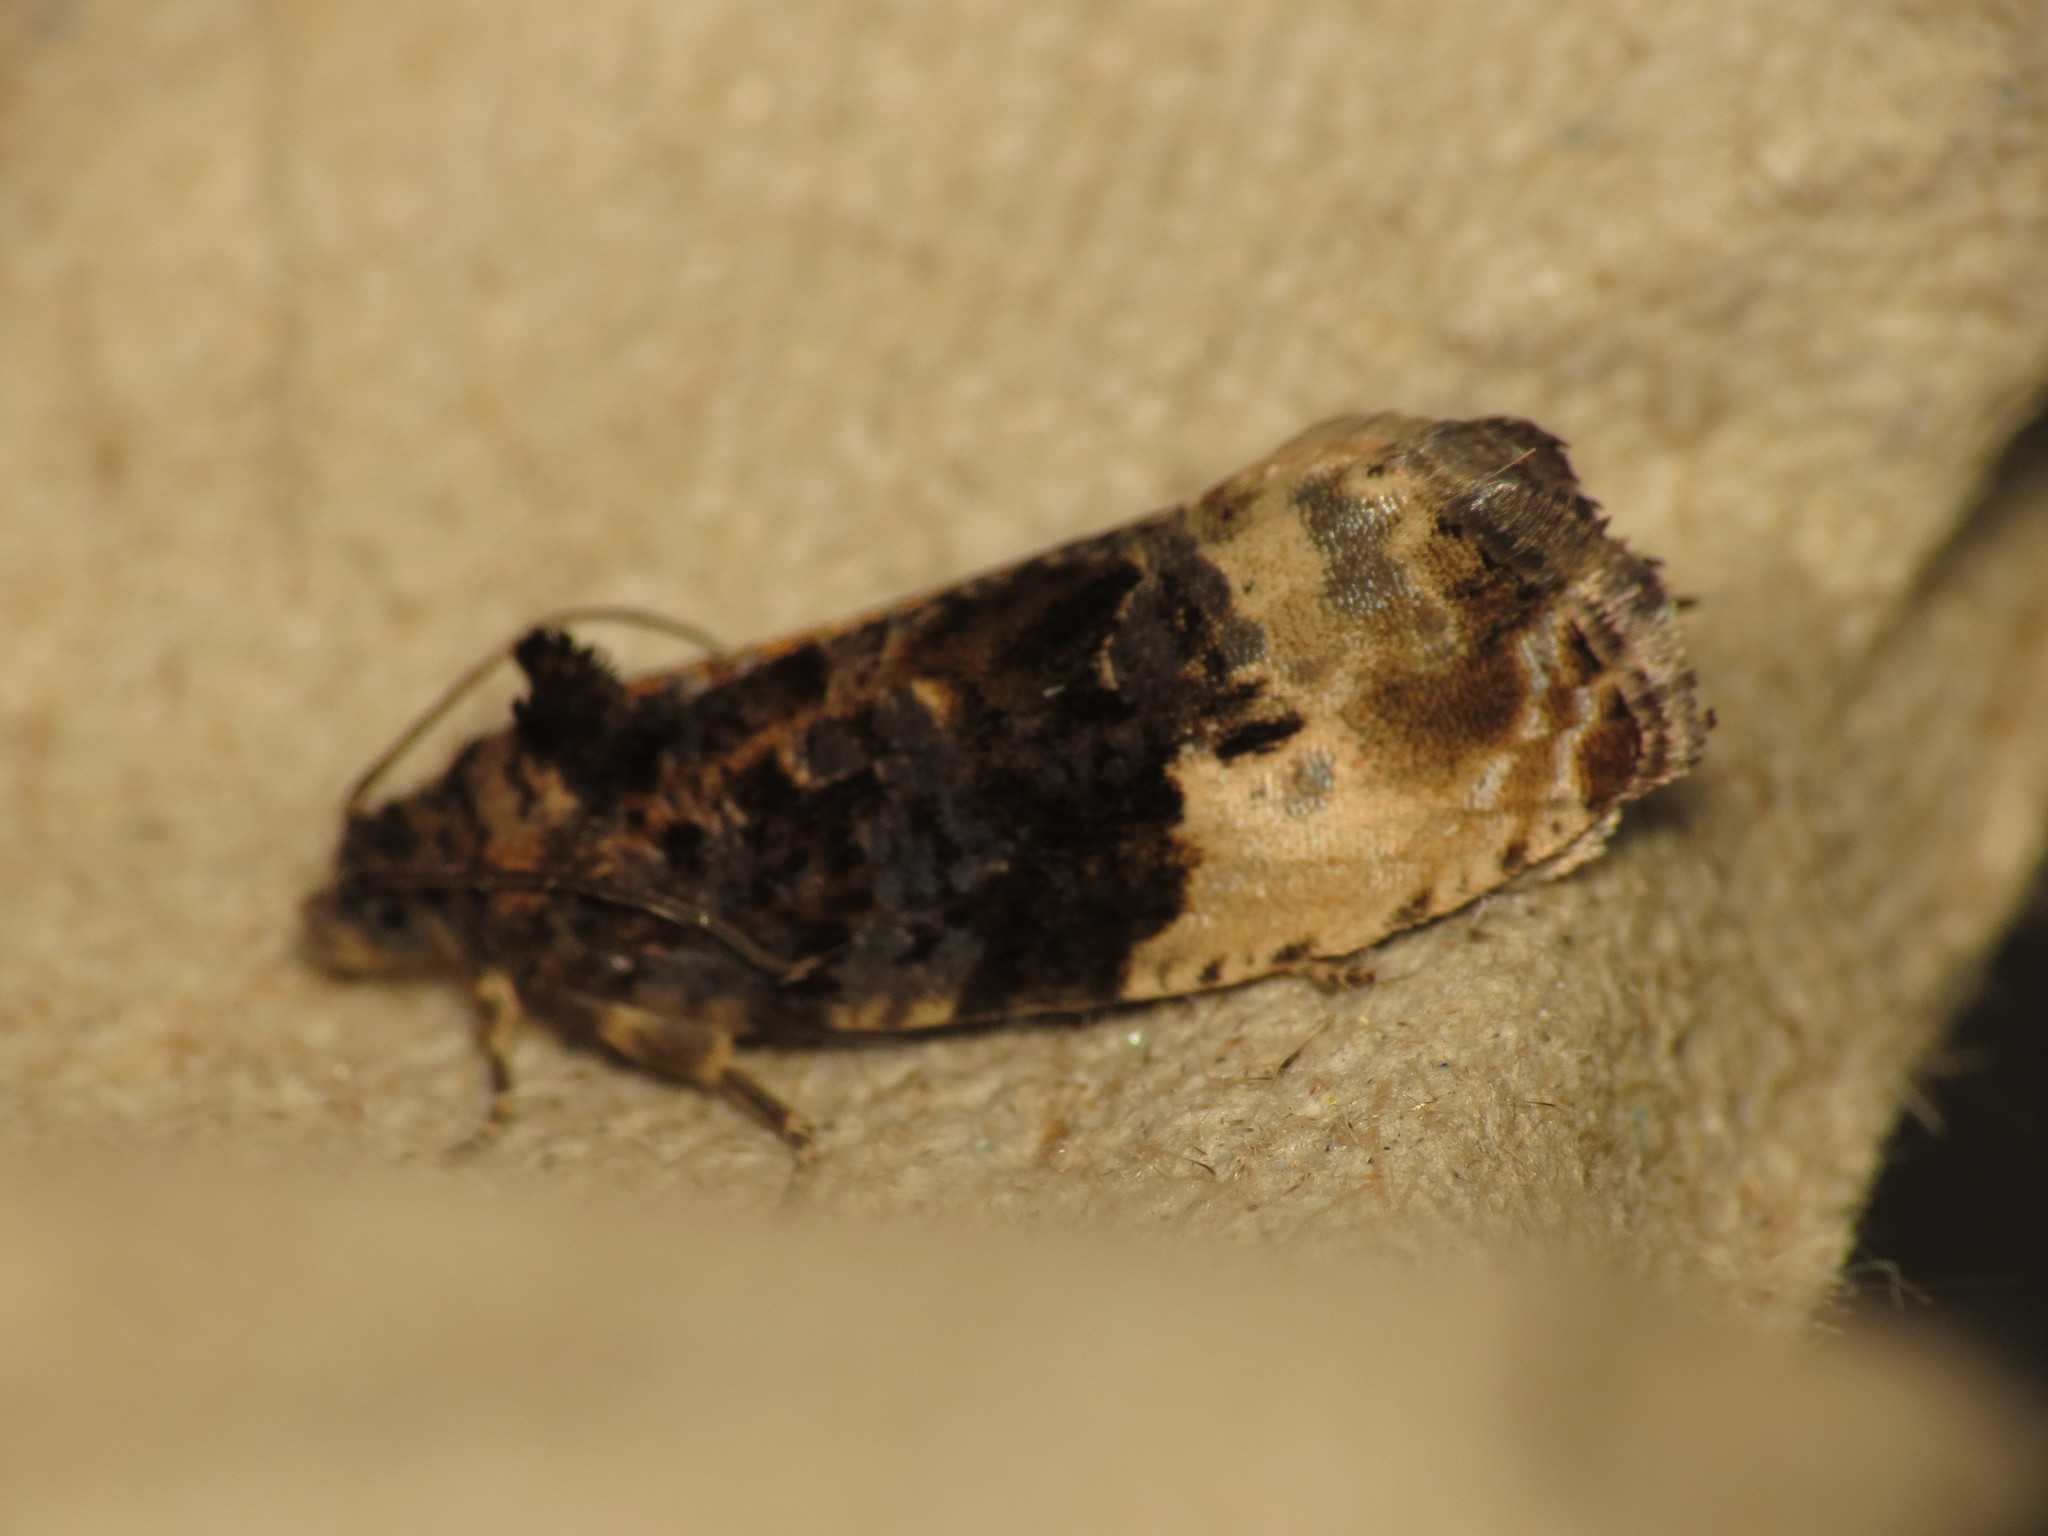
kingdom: Animalia
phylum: Arthropoda
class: Insecta
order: Lepidoptera
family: Tortricidae
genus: Hedya
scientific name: Hedya ochroleucana
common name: Buff-tipped marble
